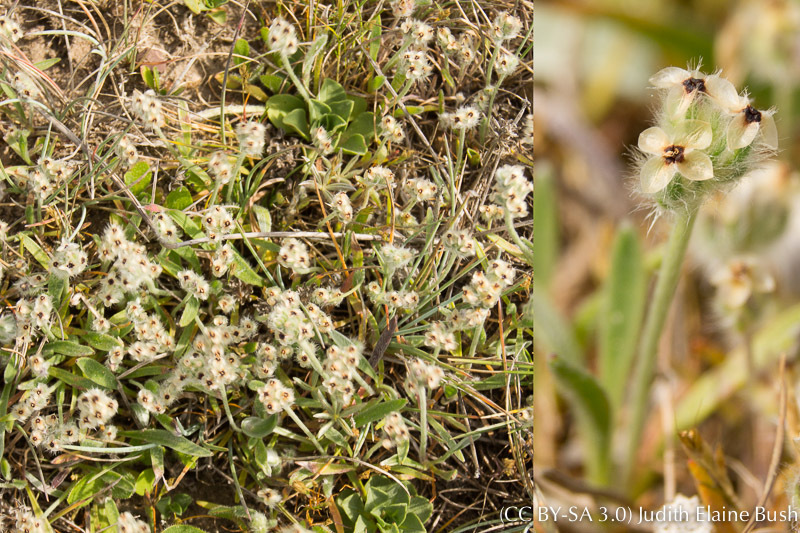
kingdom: Plantae
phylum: Tracheophyta
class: Magnoliopsida
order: Lamiales
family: Plantaginaceae
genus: Plantago
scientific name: Plantago erecta
